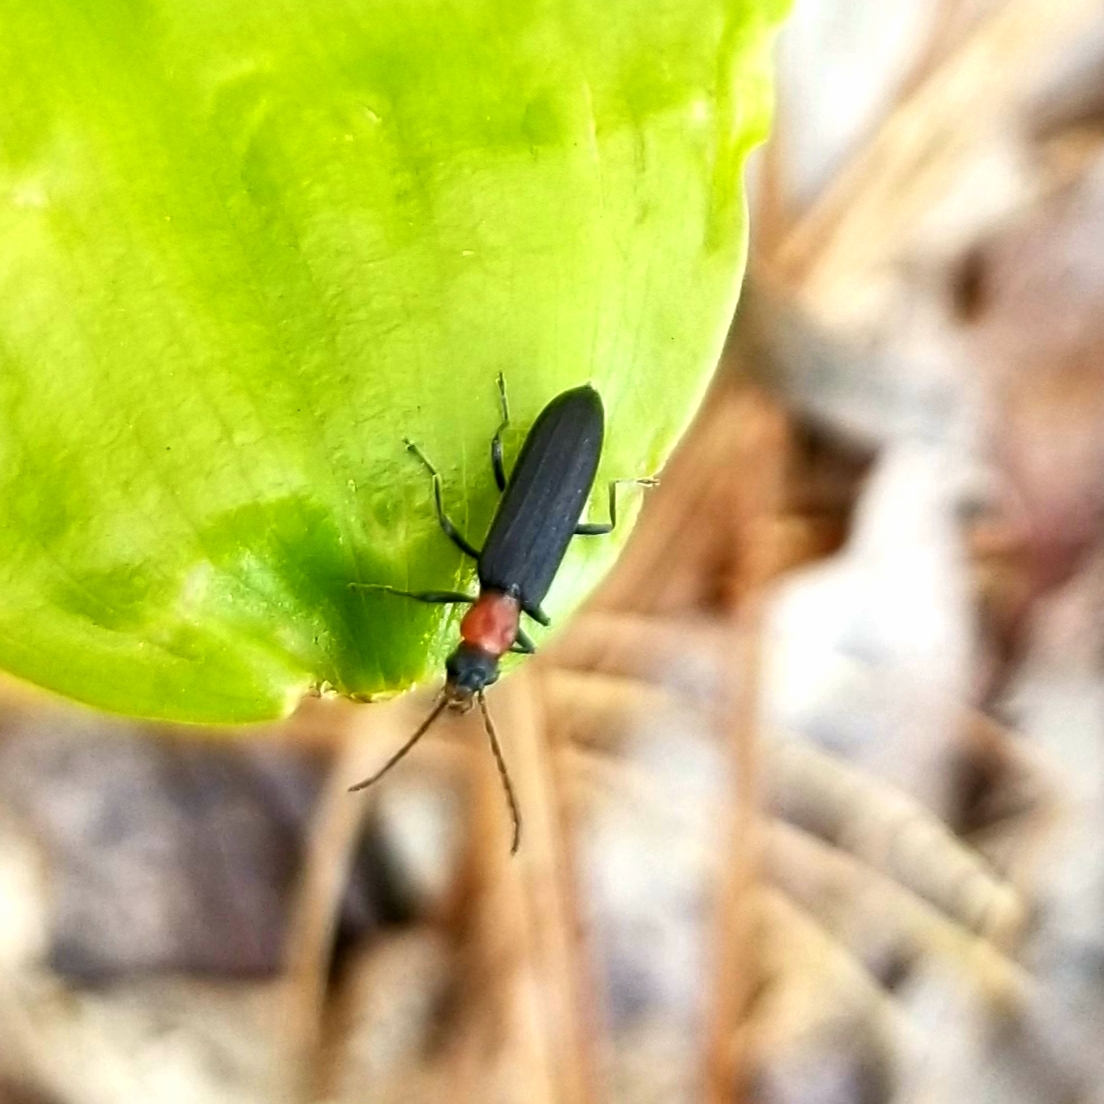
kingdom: Animalia
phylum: Arthropoda
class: Insecta
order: Coleoptera
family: Oedemeridae
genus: Ischnomera
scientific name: Ischnomera
